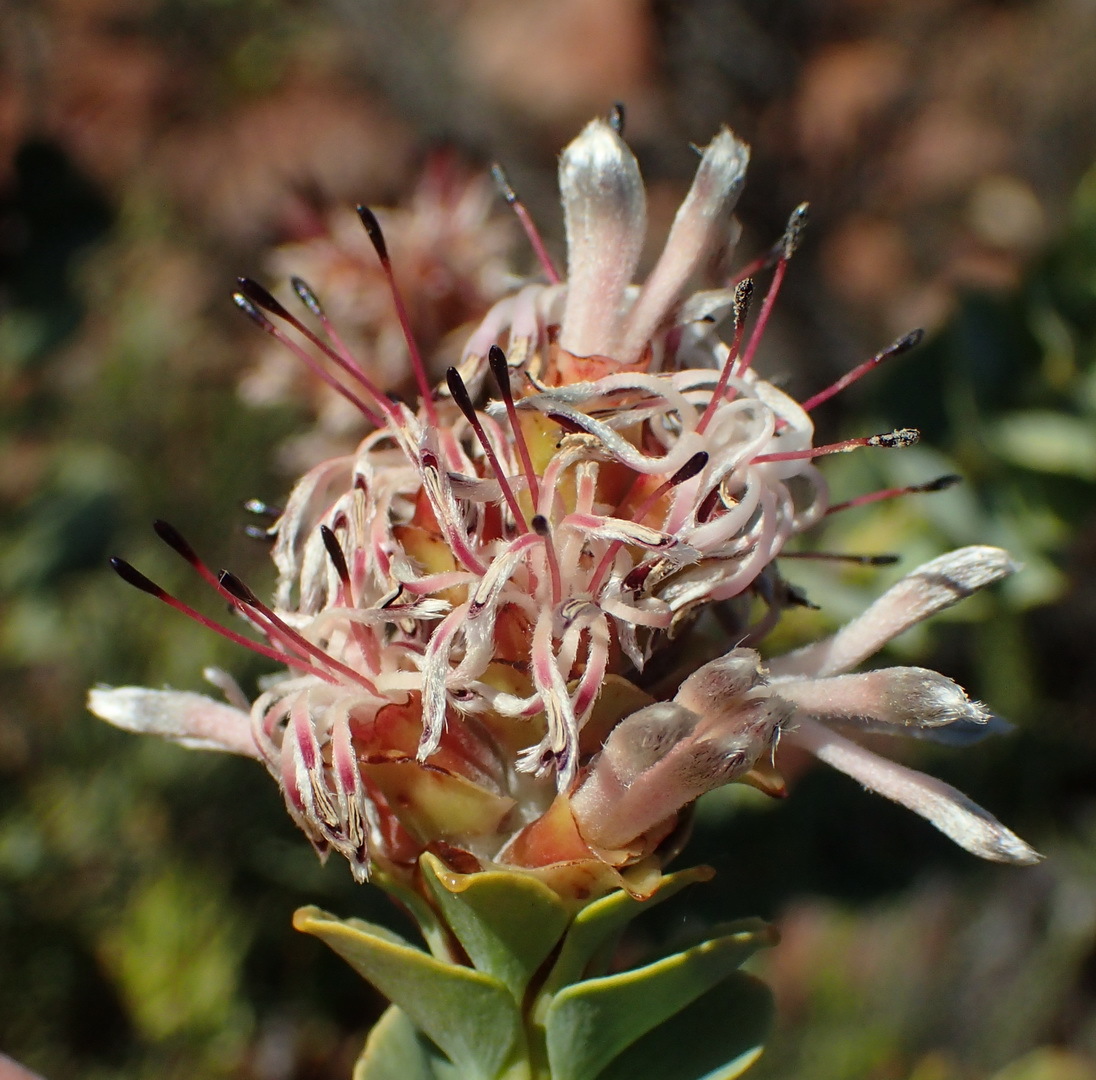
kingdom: Plantae
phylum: Tracheophyta
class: Magnoliopsida
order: Proteales
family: Proteaceae
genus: Paranomus
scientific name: Paranomus roodebergensis
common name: Honey-scented sceptre
